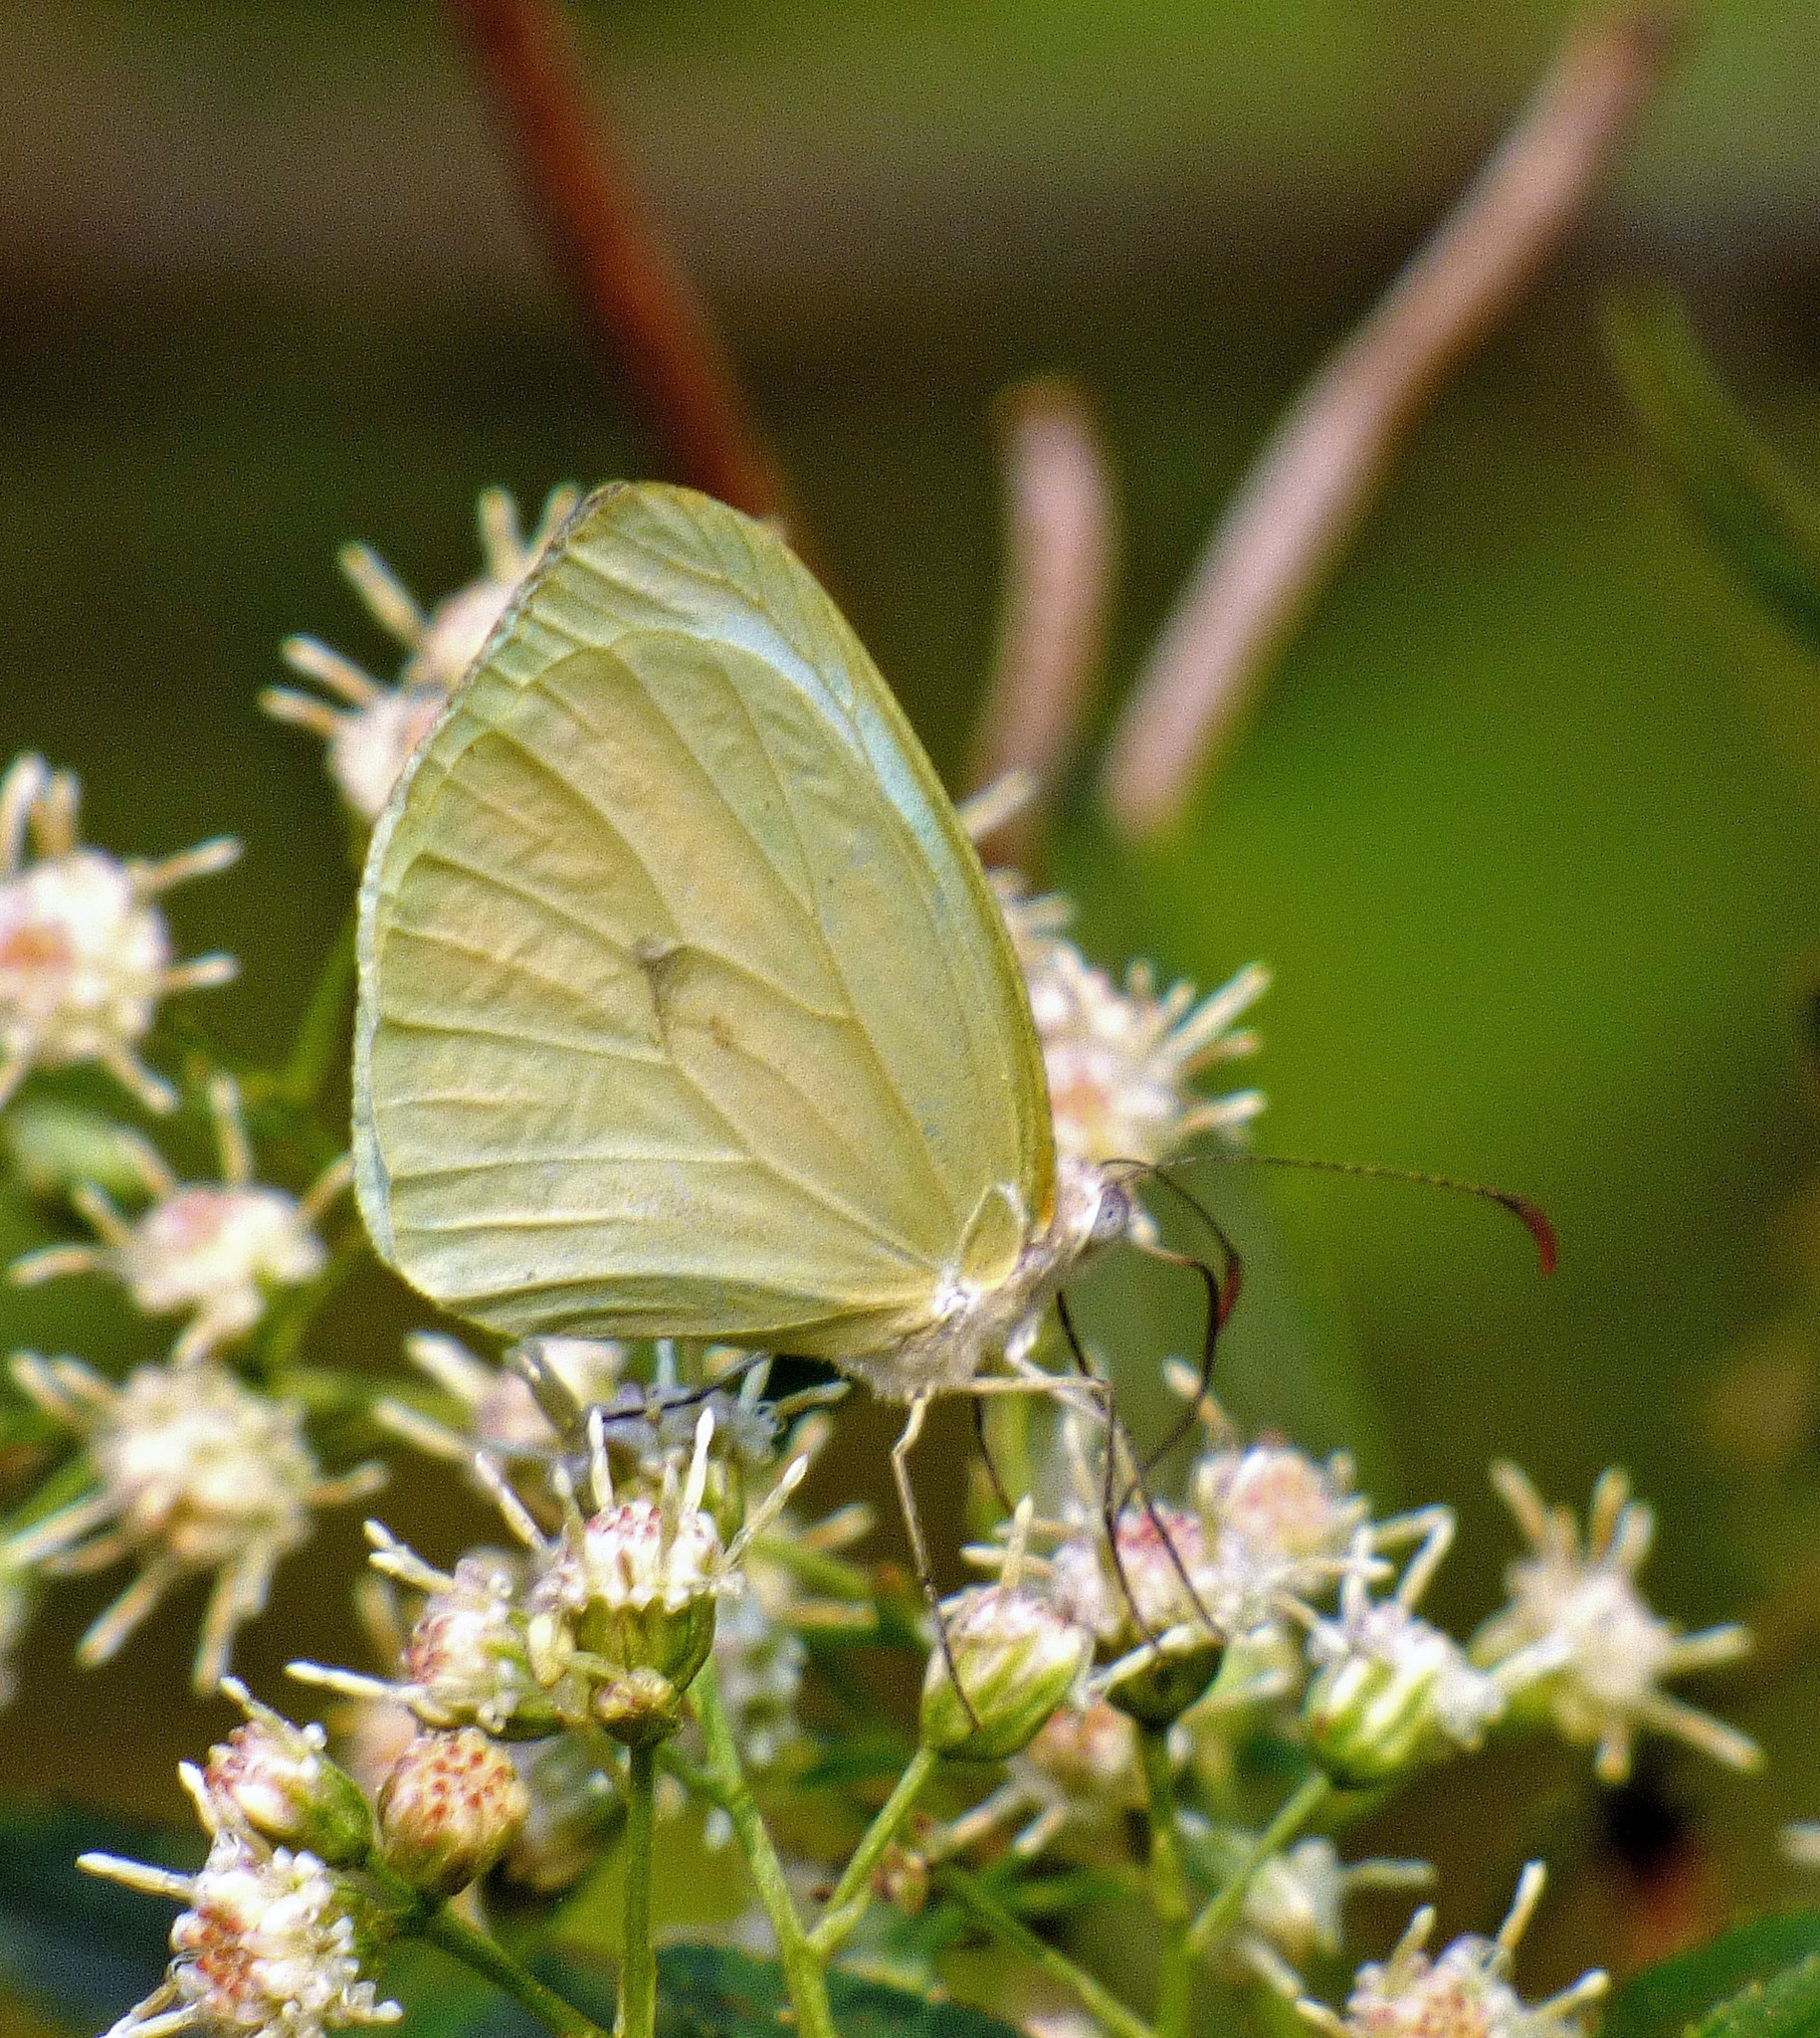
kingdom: Animalia
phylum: Arthropoda
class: Insecta
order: Lepidoptera
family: Pieridae
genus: Pseudopieris
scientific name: Pseudopieris nehemia
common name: Clean mimic-white
